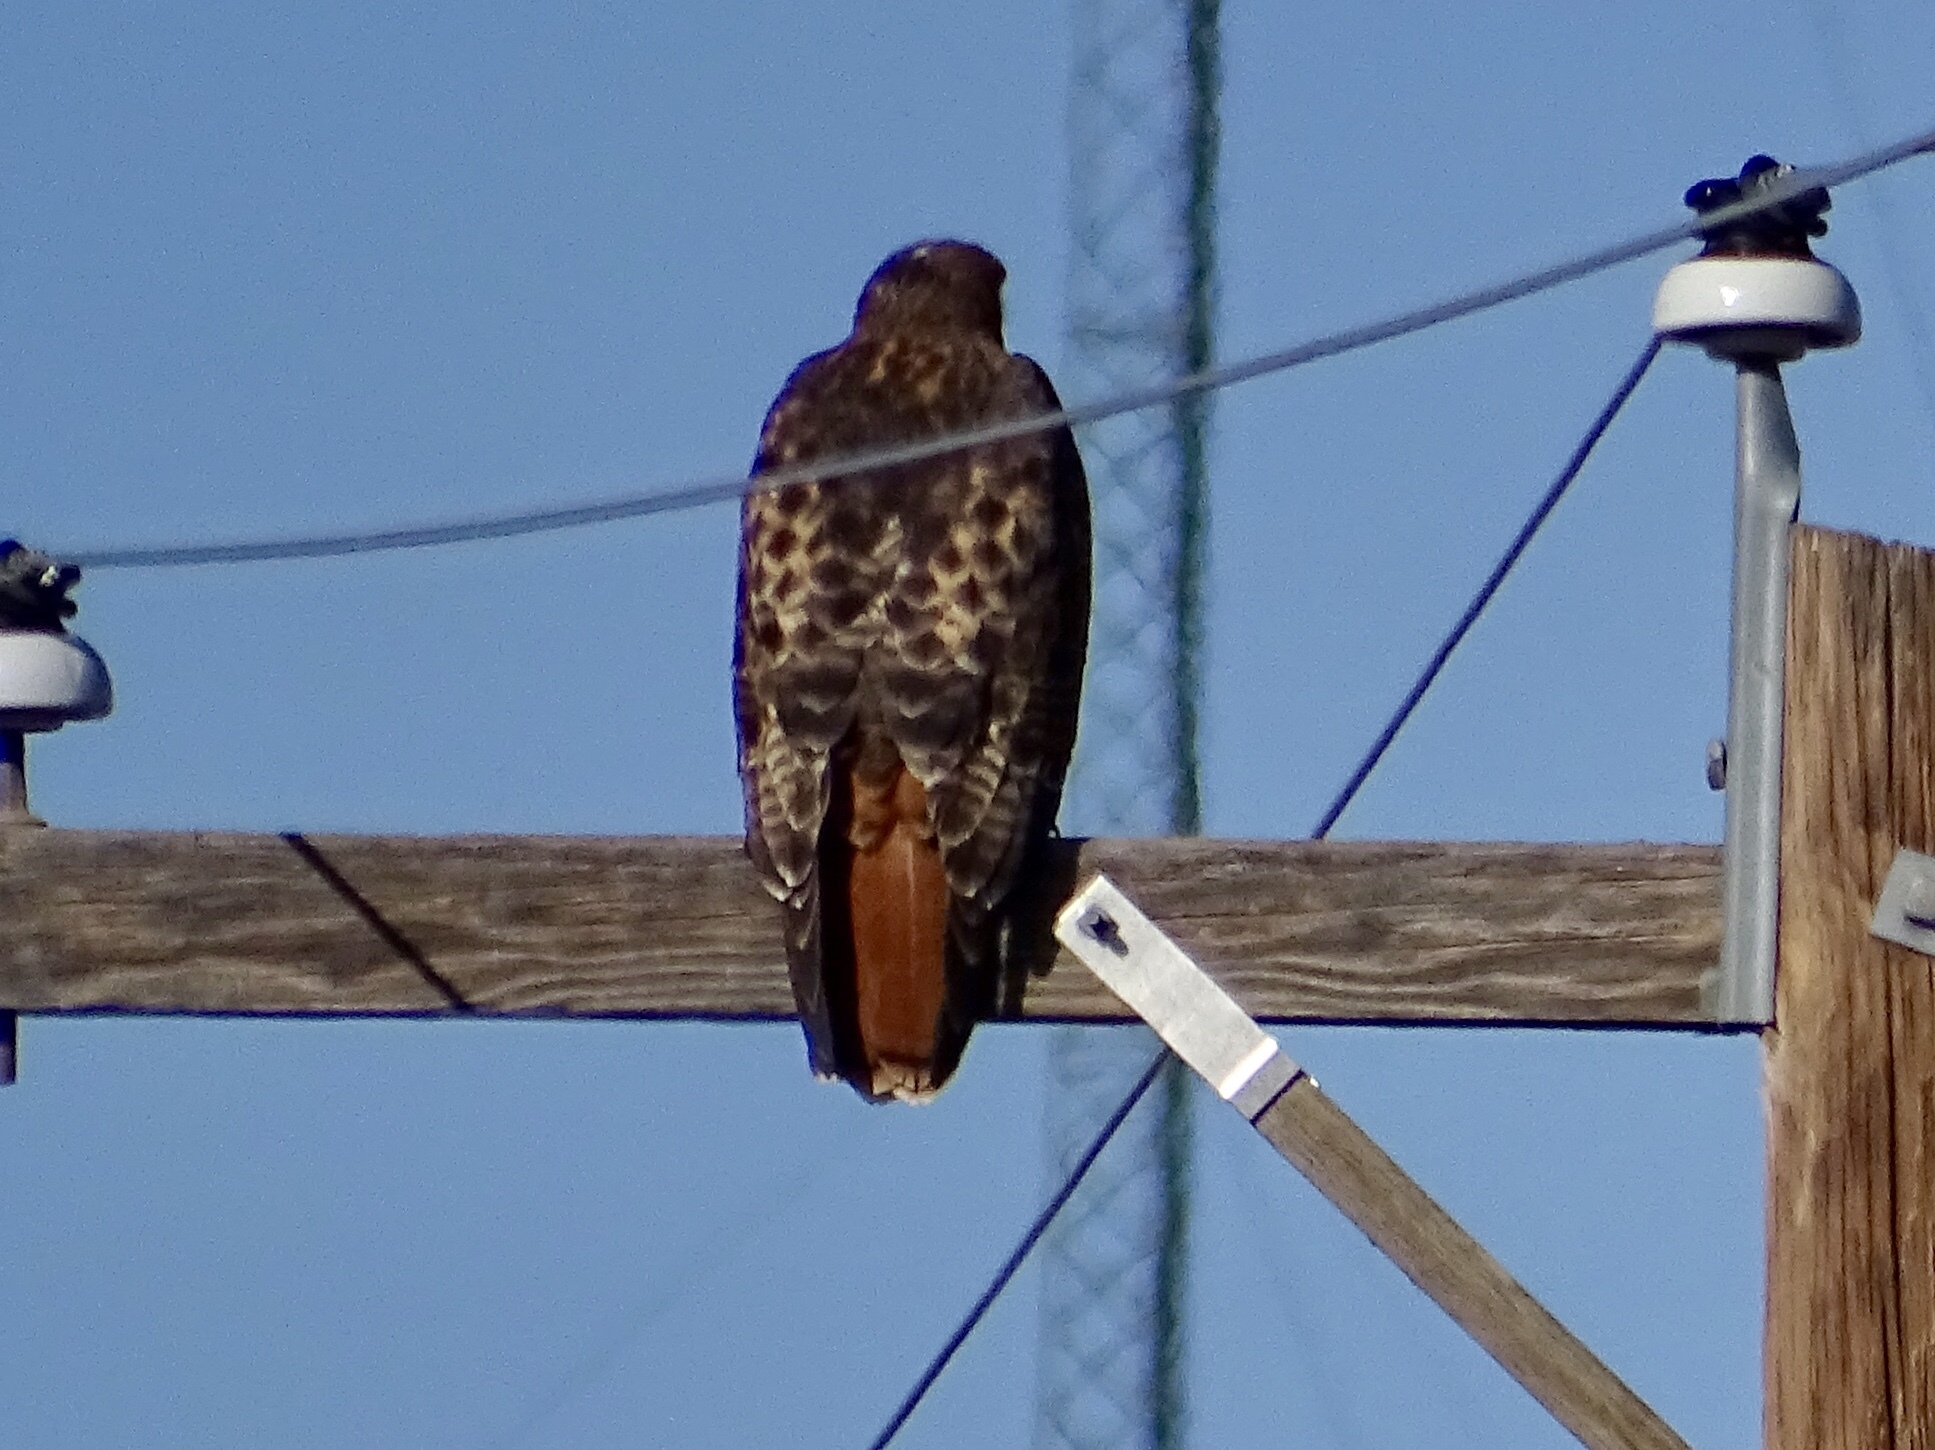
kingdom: Animalia
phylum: Chordata
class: Aves
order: Accipitriformes
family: Accipitridae
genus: Buteo
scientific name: Buteo jamaicensis
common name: Red-tailed hawk
